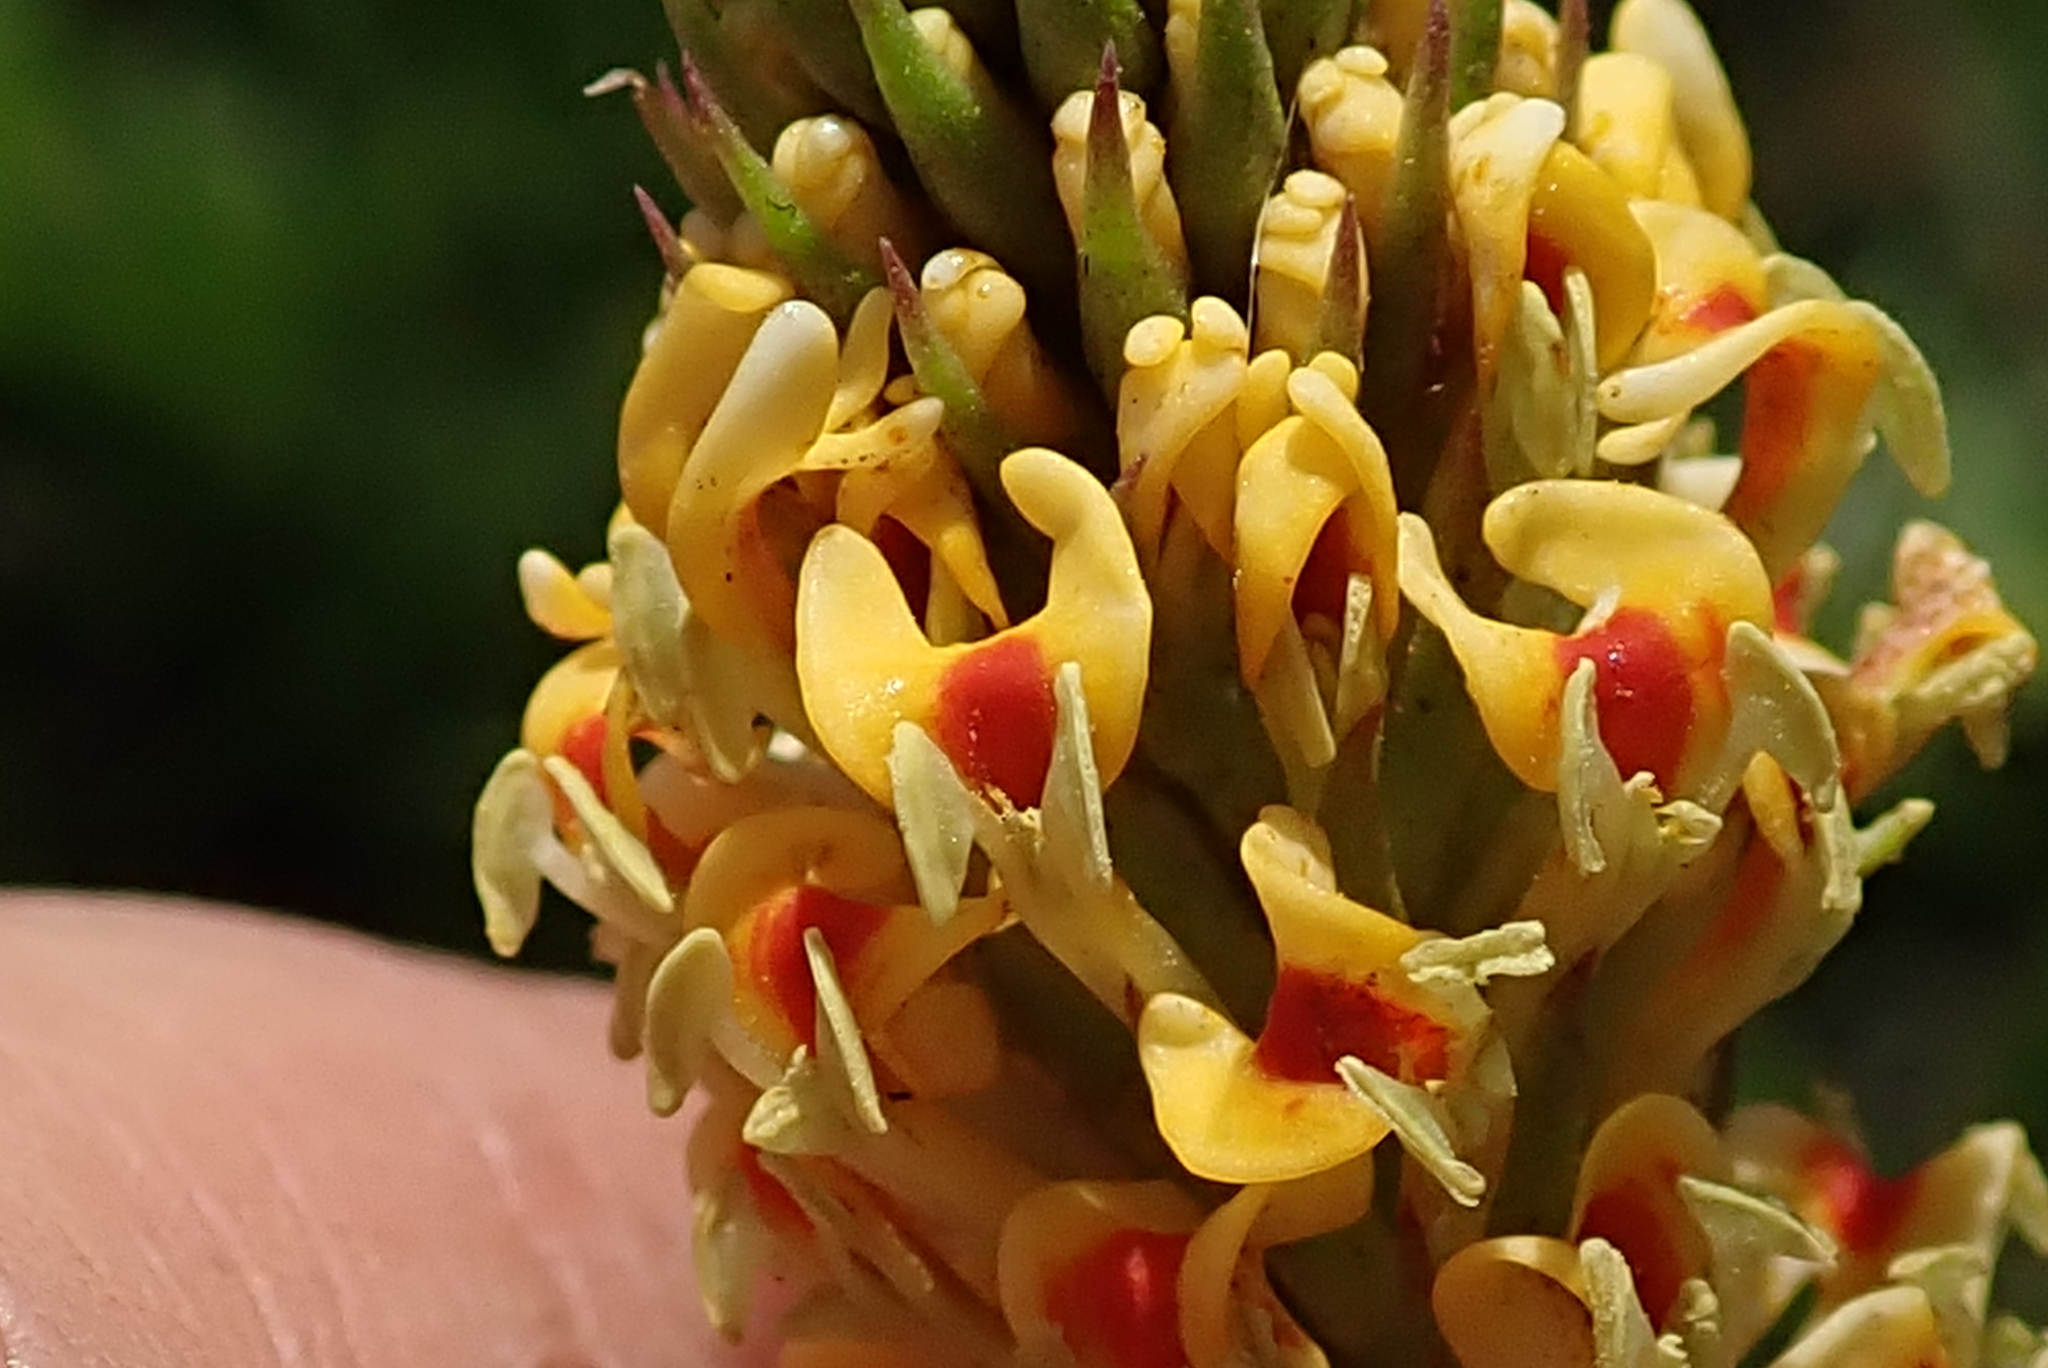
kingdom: Plantae
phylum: Tracheophyta
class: Magnoliopsida
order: Lamiales
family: Scrophulariaceae
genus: Hebenstretia
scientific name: Hebenstretia comosa
